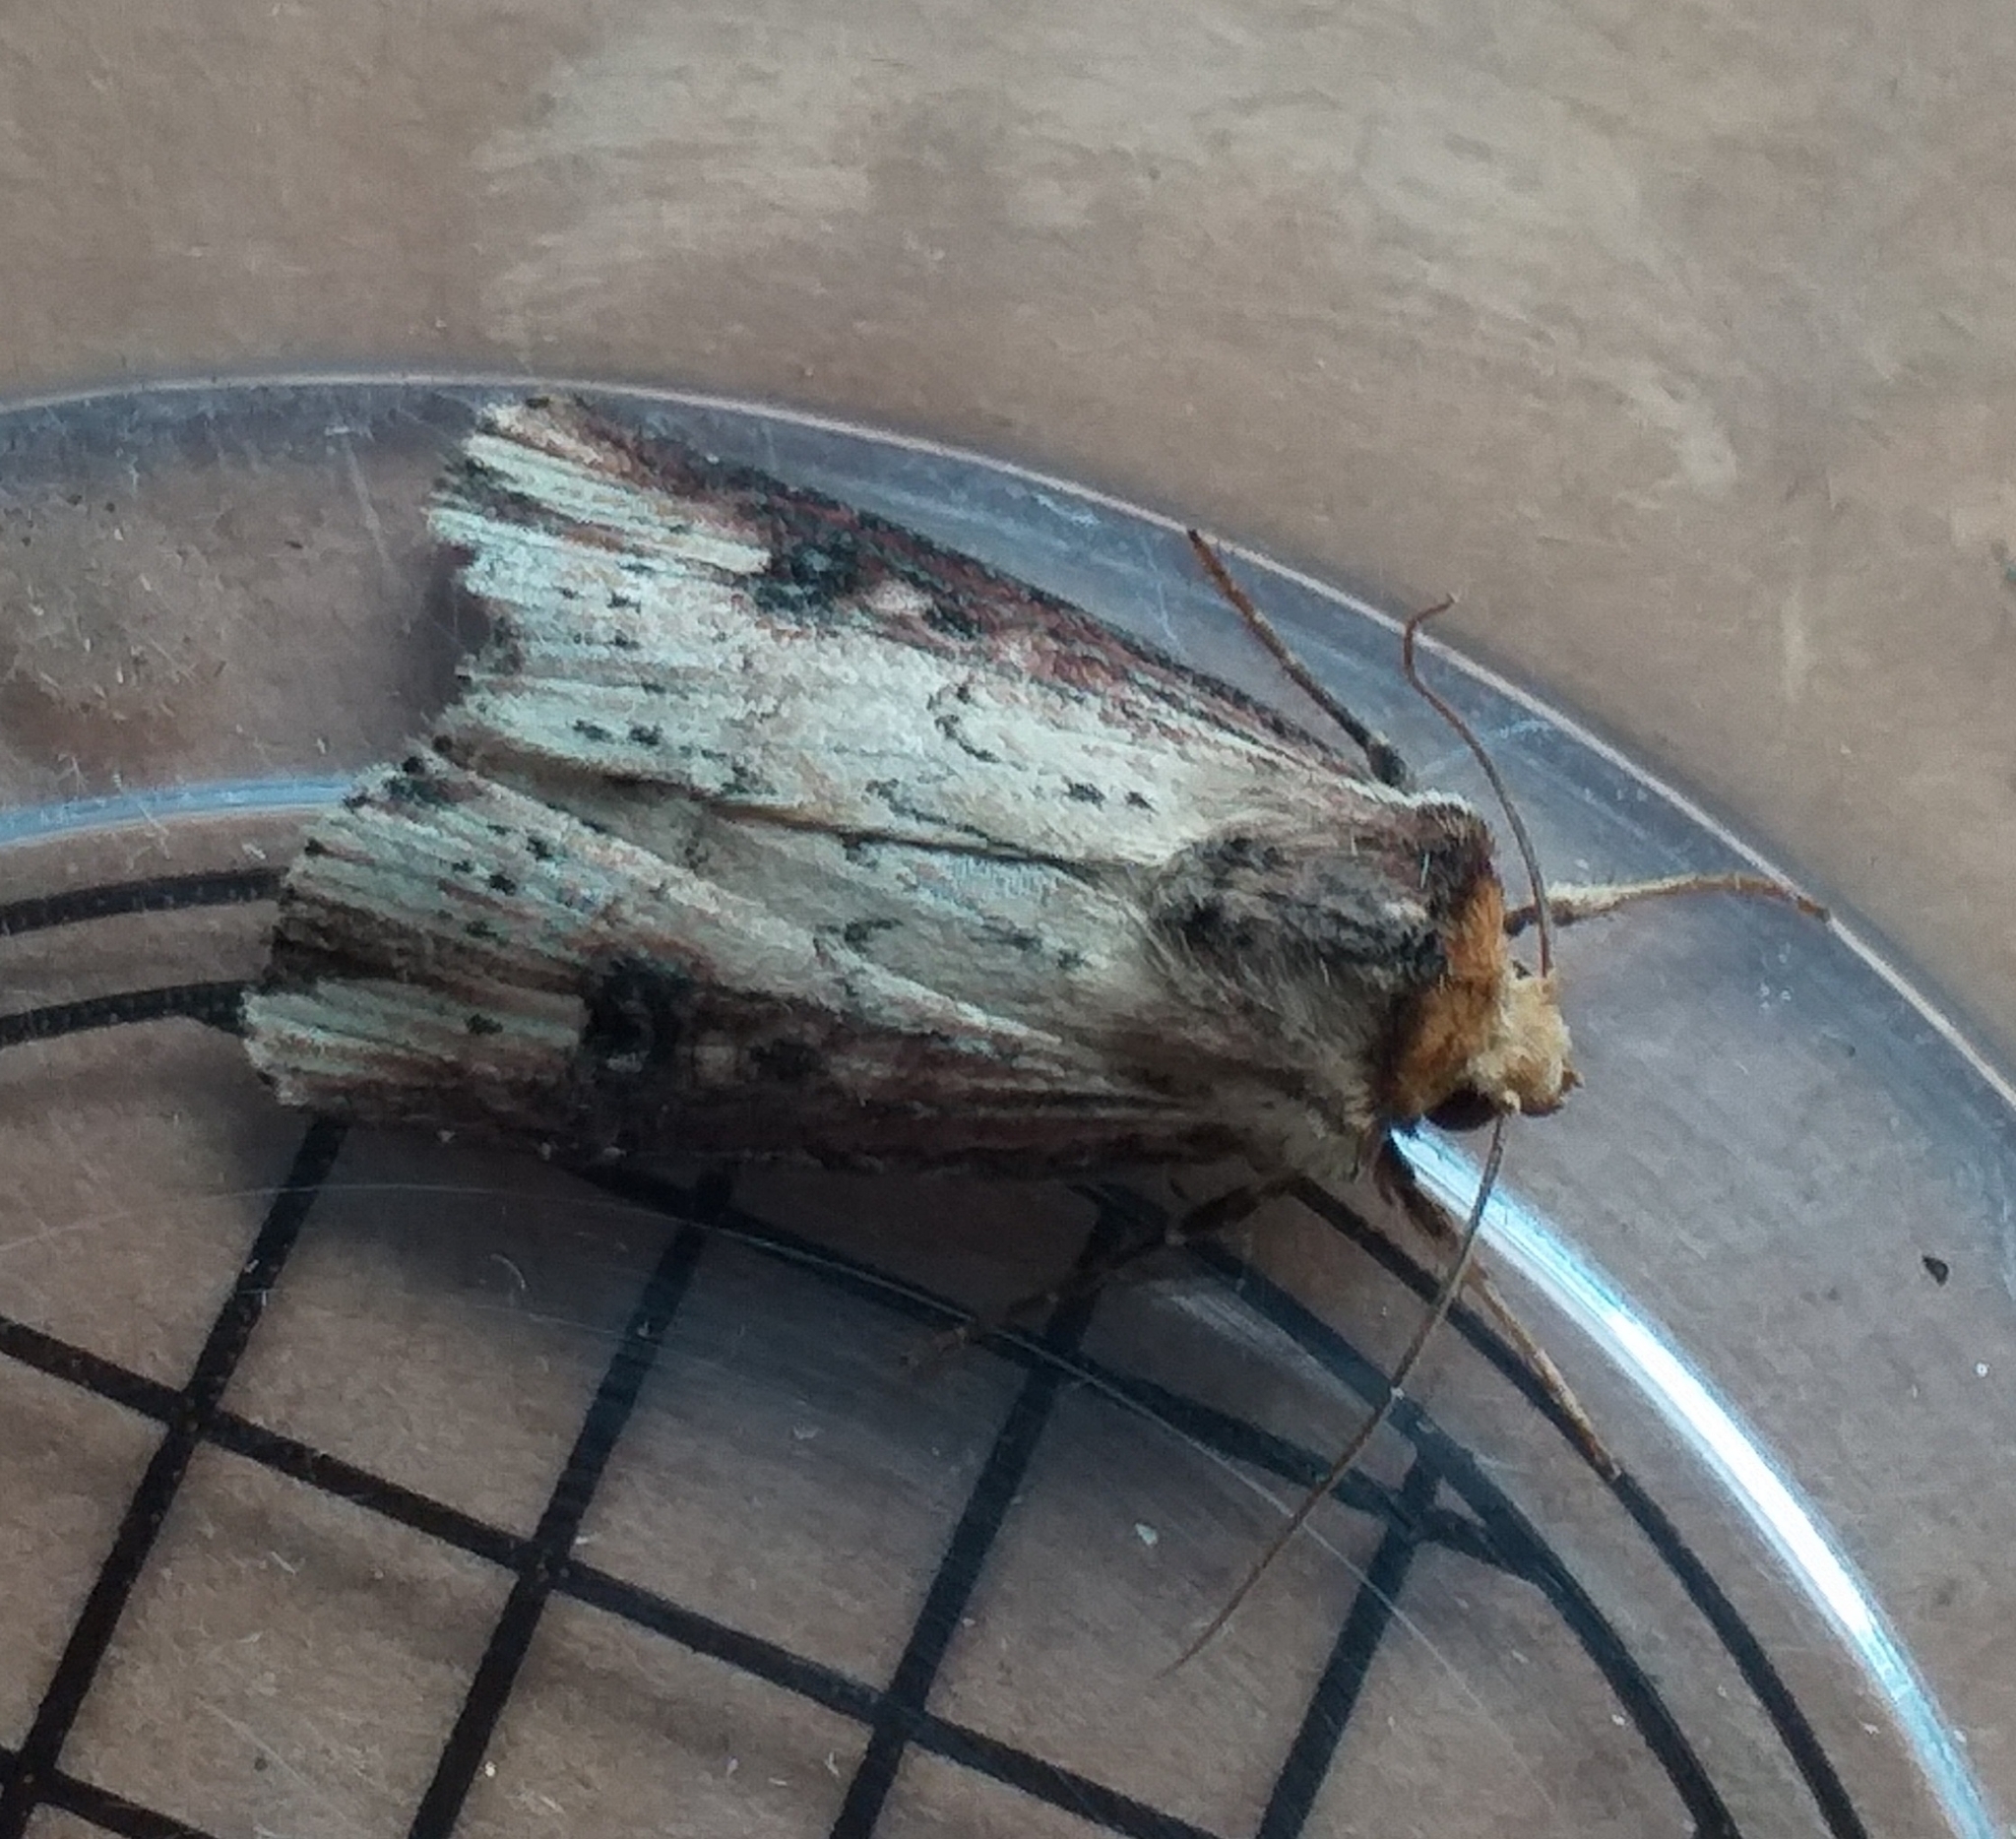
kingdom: Animalia
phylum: Arthropoda
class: Insecta
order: Lepidoptera
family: Noctuidae
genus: Axylia
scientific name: Axylia putris
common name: Flame
